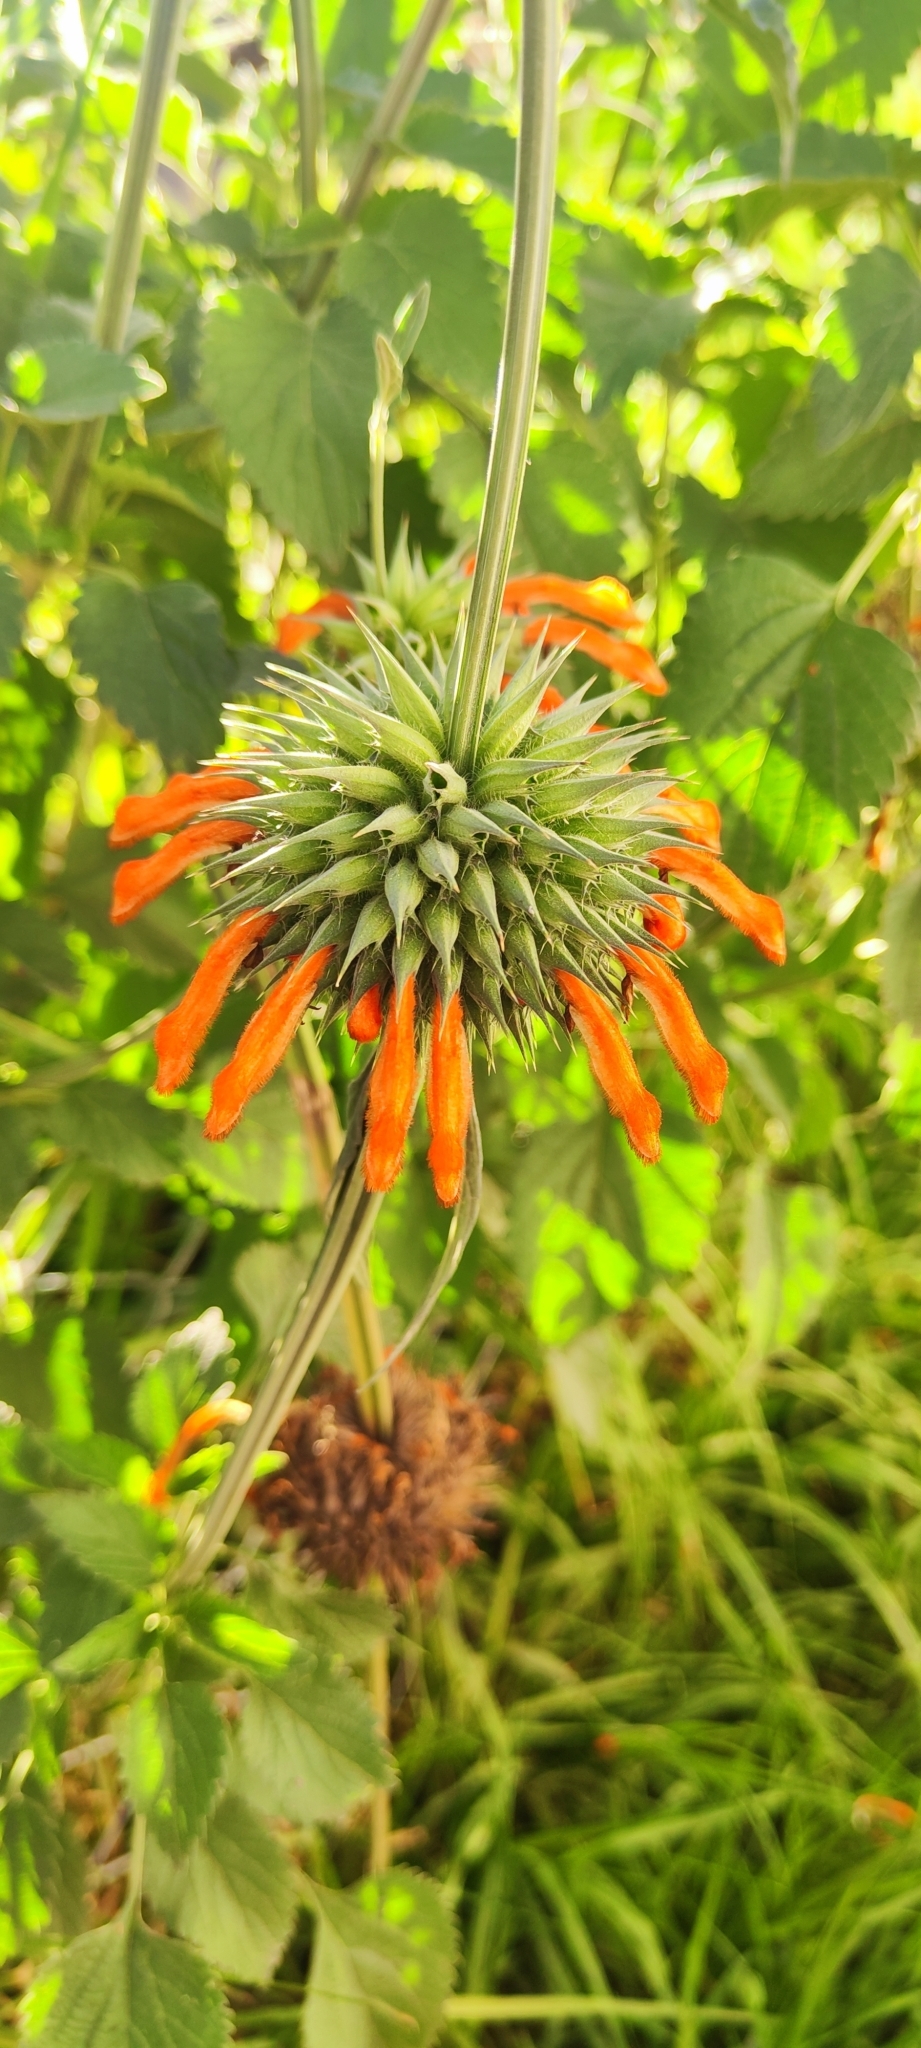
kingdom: Plantae
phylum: Tracheophyta
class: Magnoliopsida
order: Lamiales
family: Lamiaceae
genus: Leonotis
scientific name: Leonotis nepetifolia
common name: Christmas candlestick
